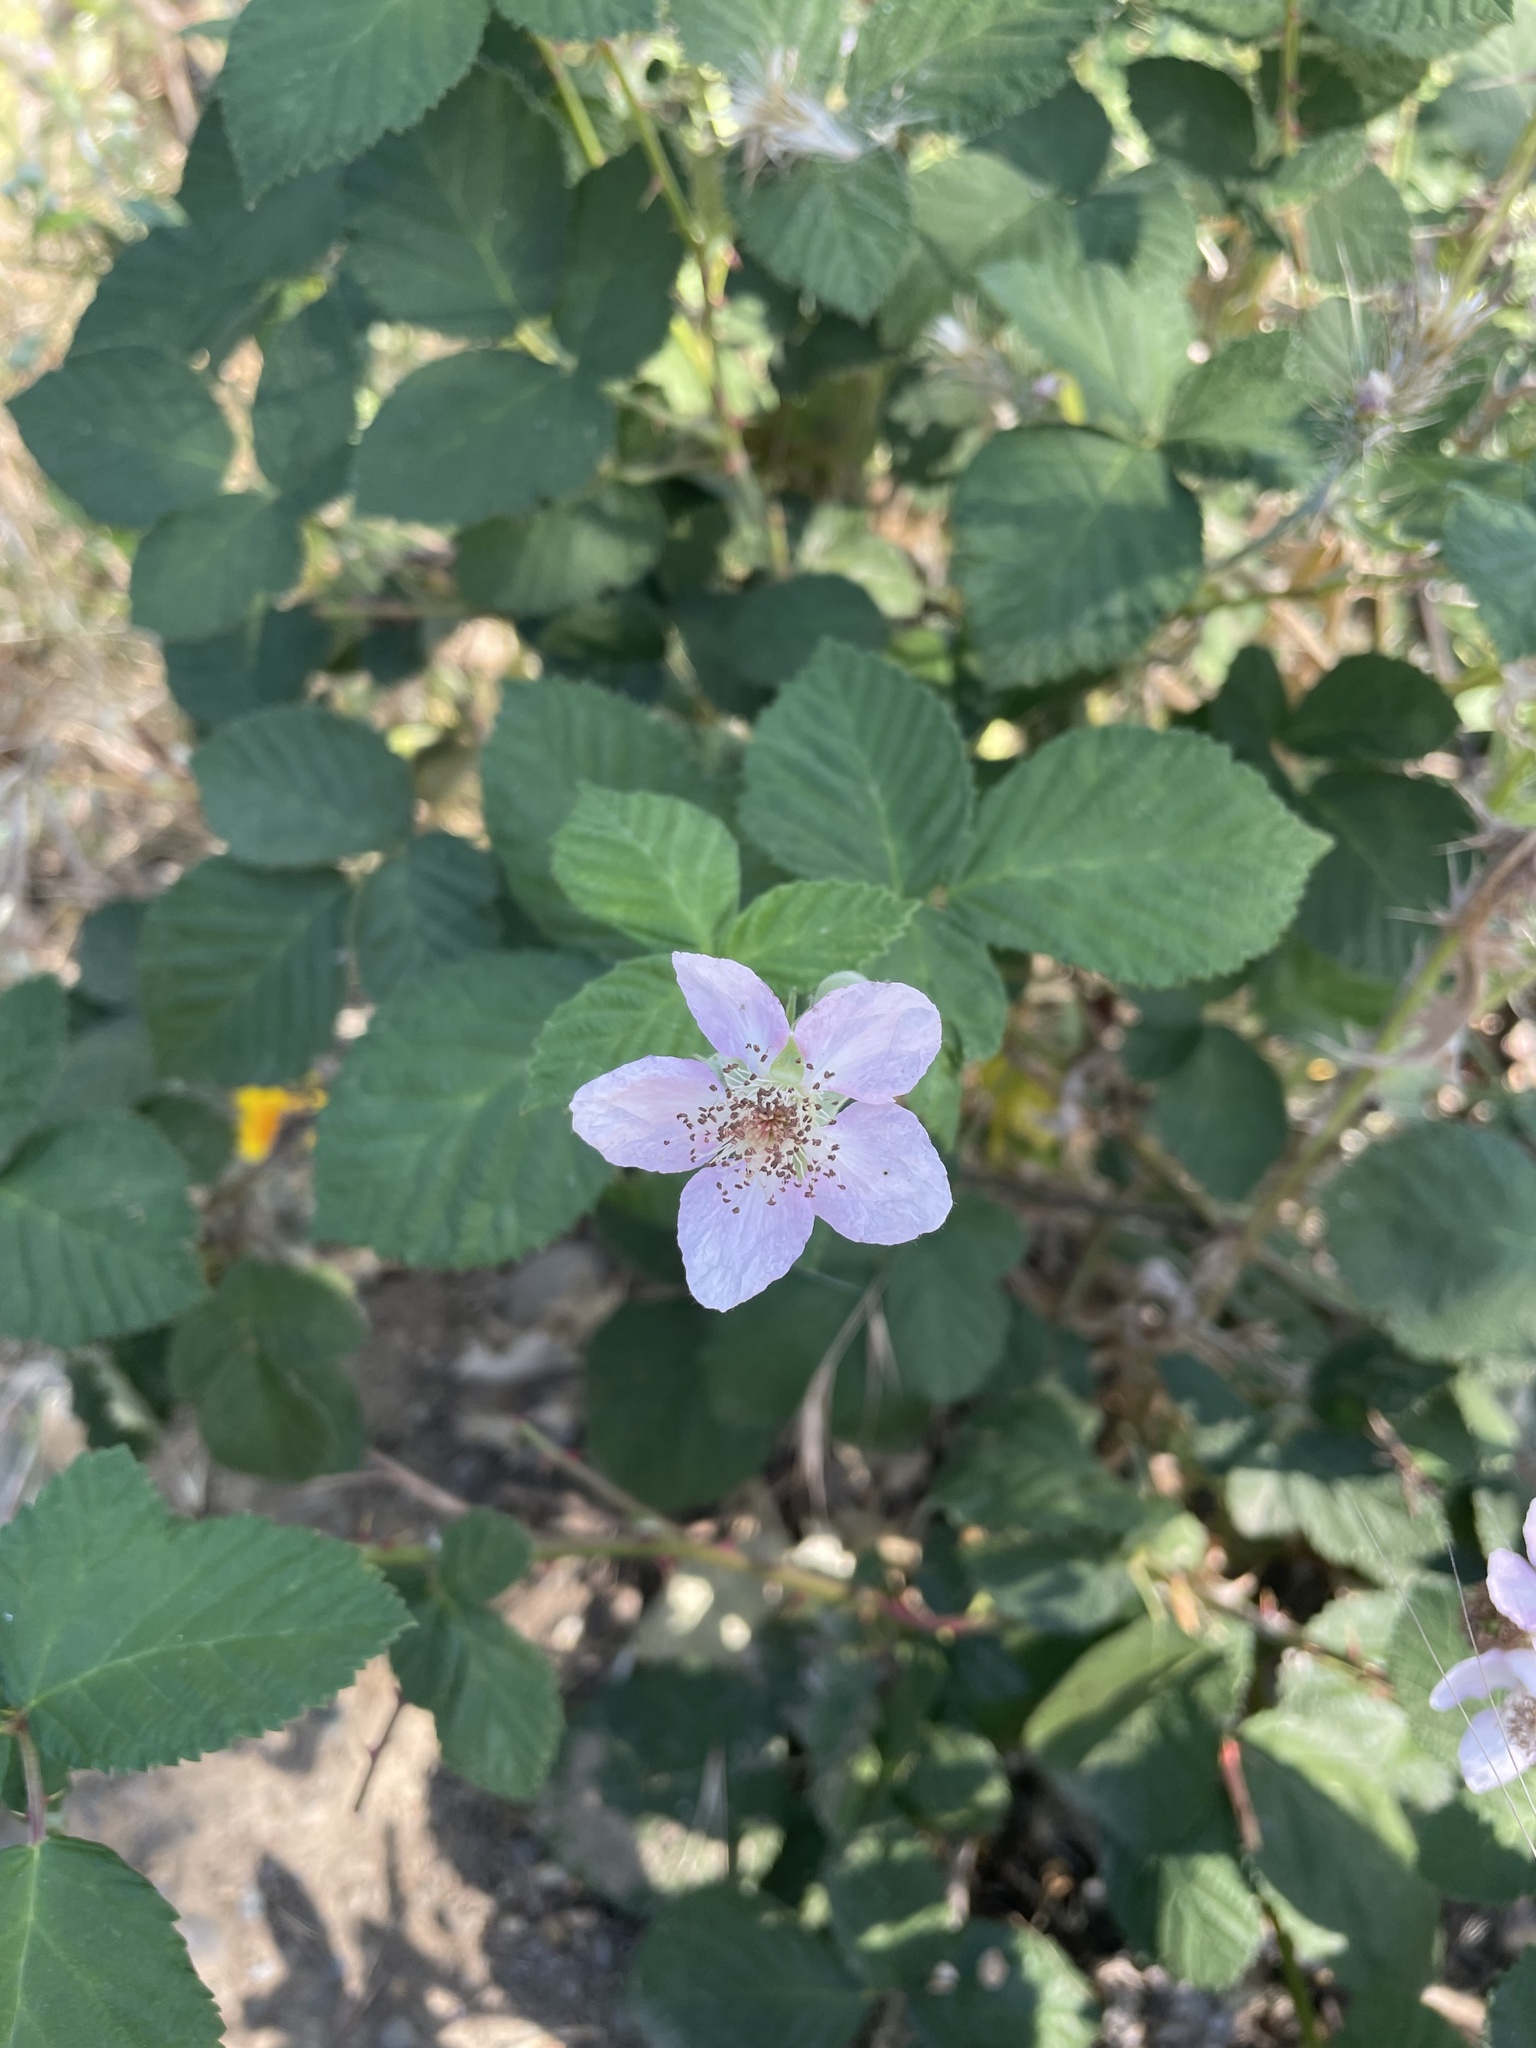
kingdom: Plantae
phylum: Tracheophyta
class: Magnoliopsida
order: Rosales
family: Rosaceae
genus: Rubus
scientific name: Rubus armeniacus
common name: Himalayan blackberry
